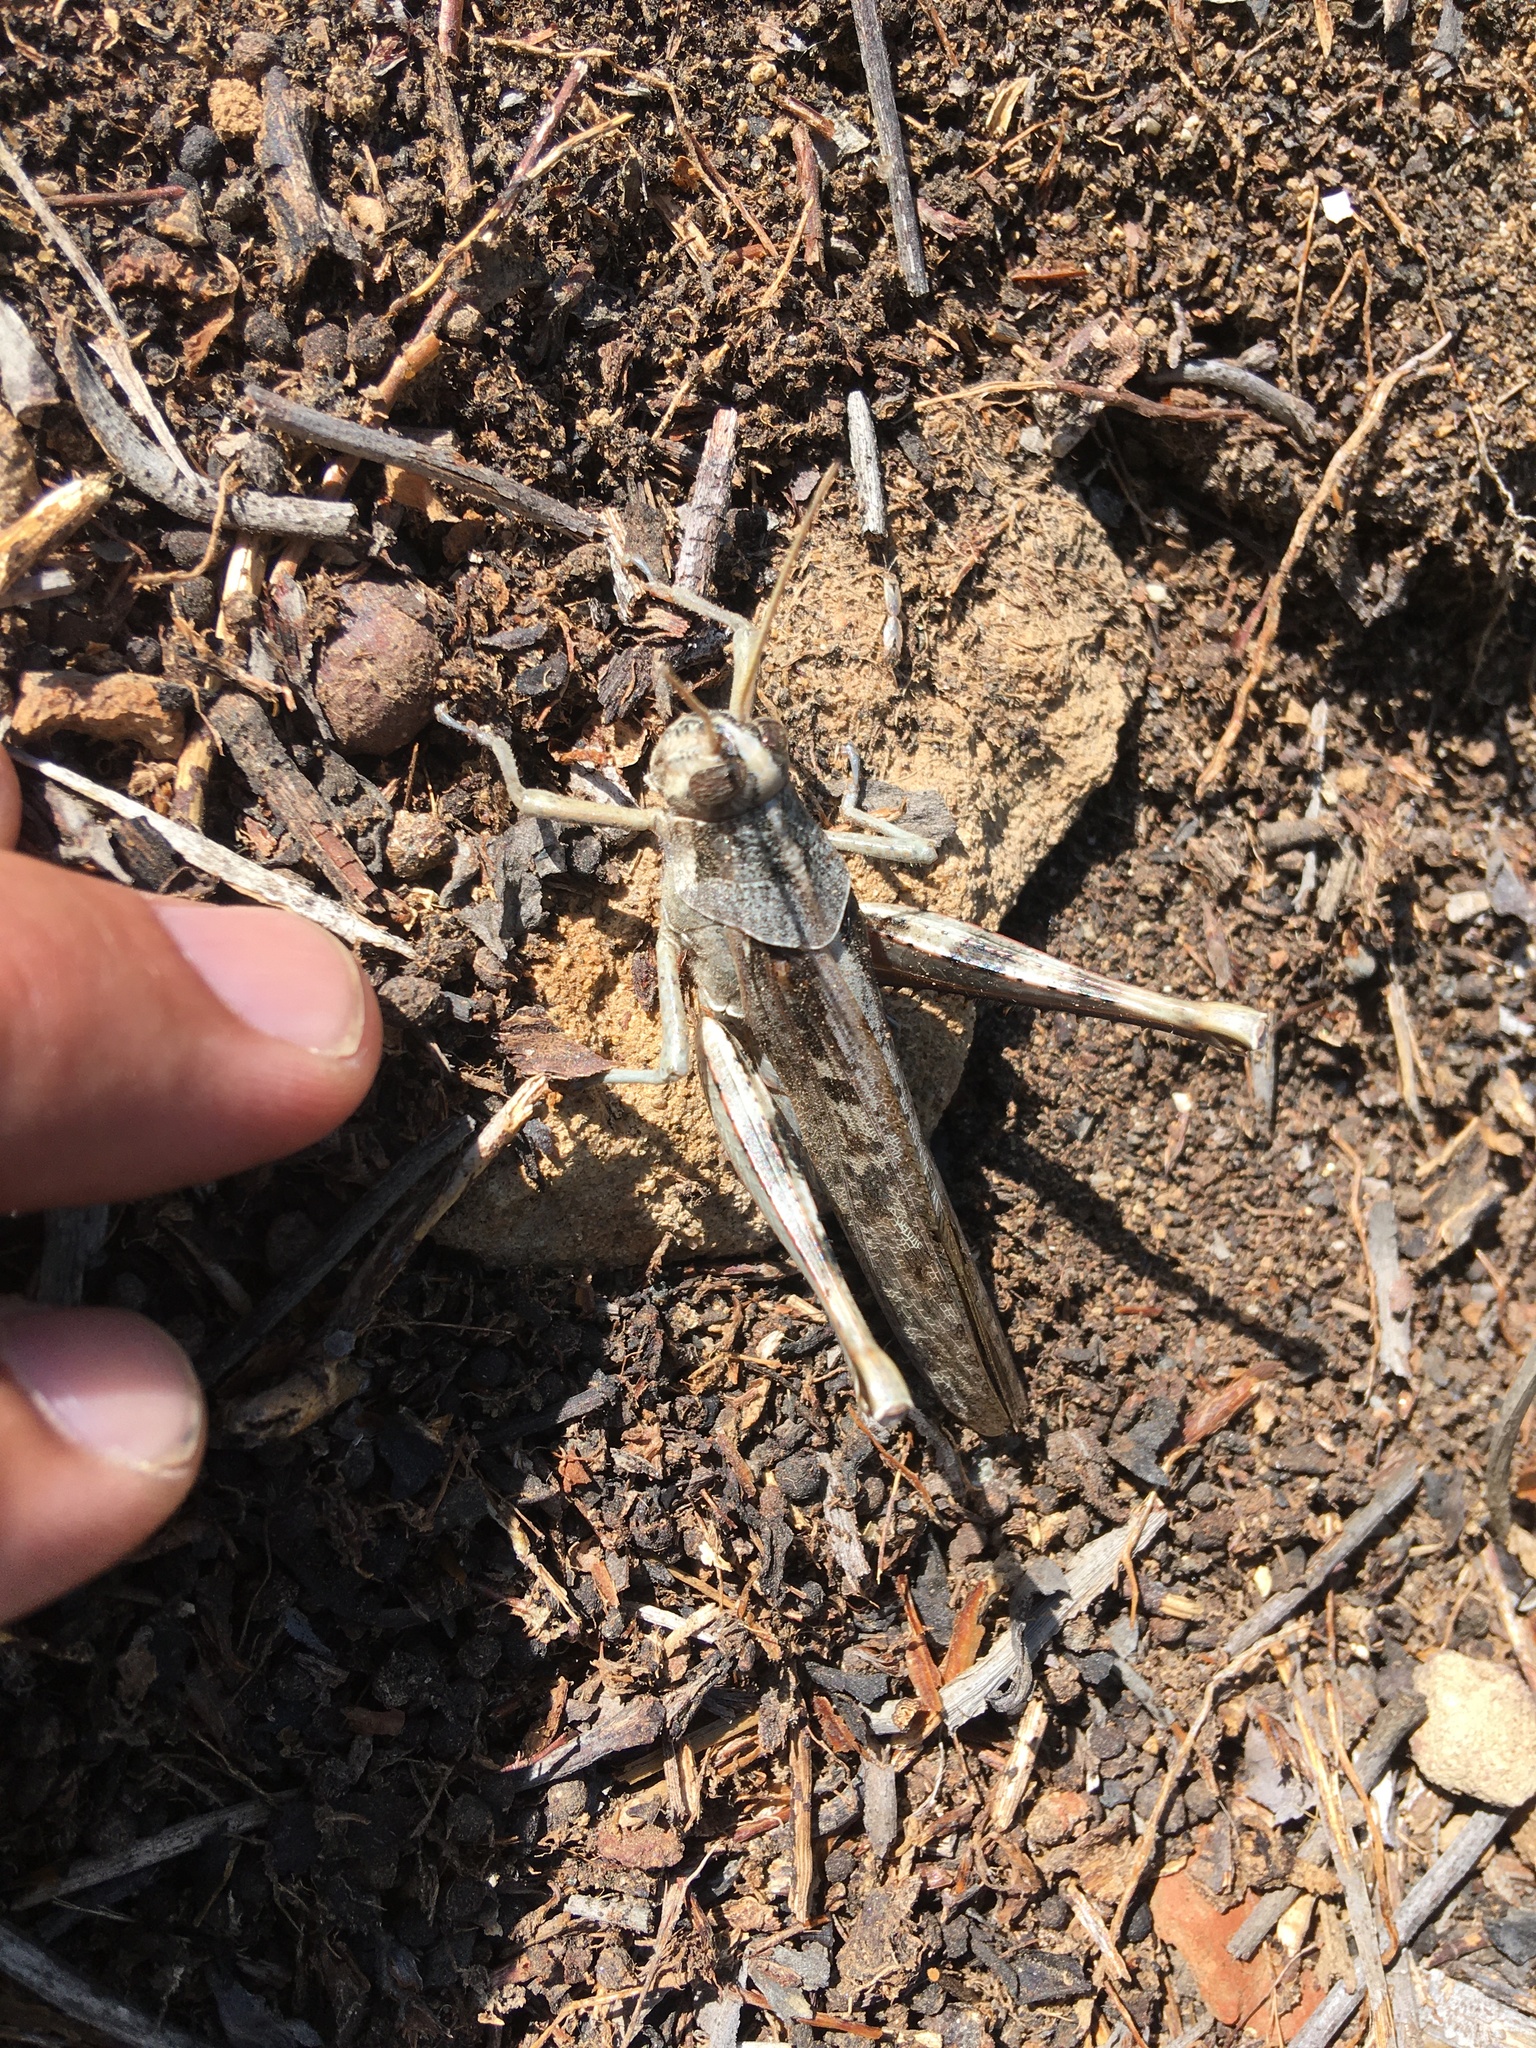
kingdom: Animalia
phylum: Arthropoda
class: Insecta
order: Orthoptera
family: Acrididae
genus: Schistocerca
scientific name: Schistocerca nitens
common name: Vagrant grasshopper
